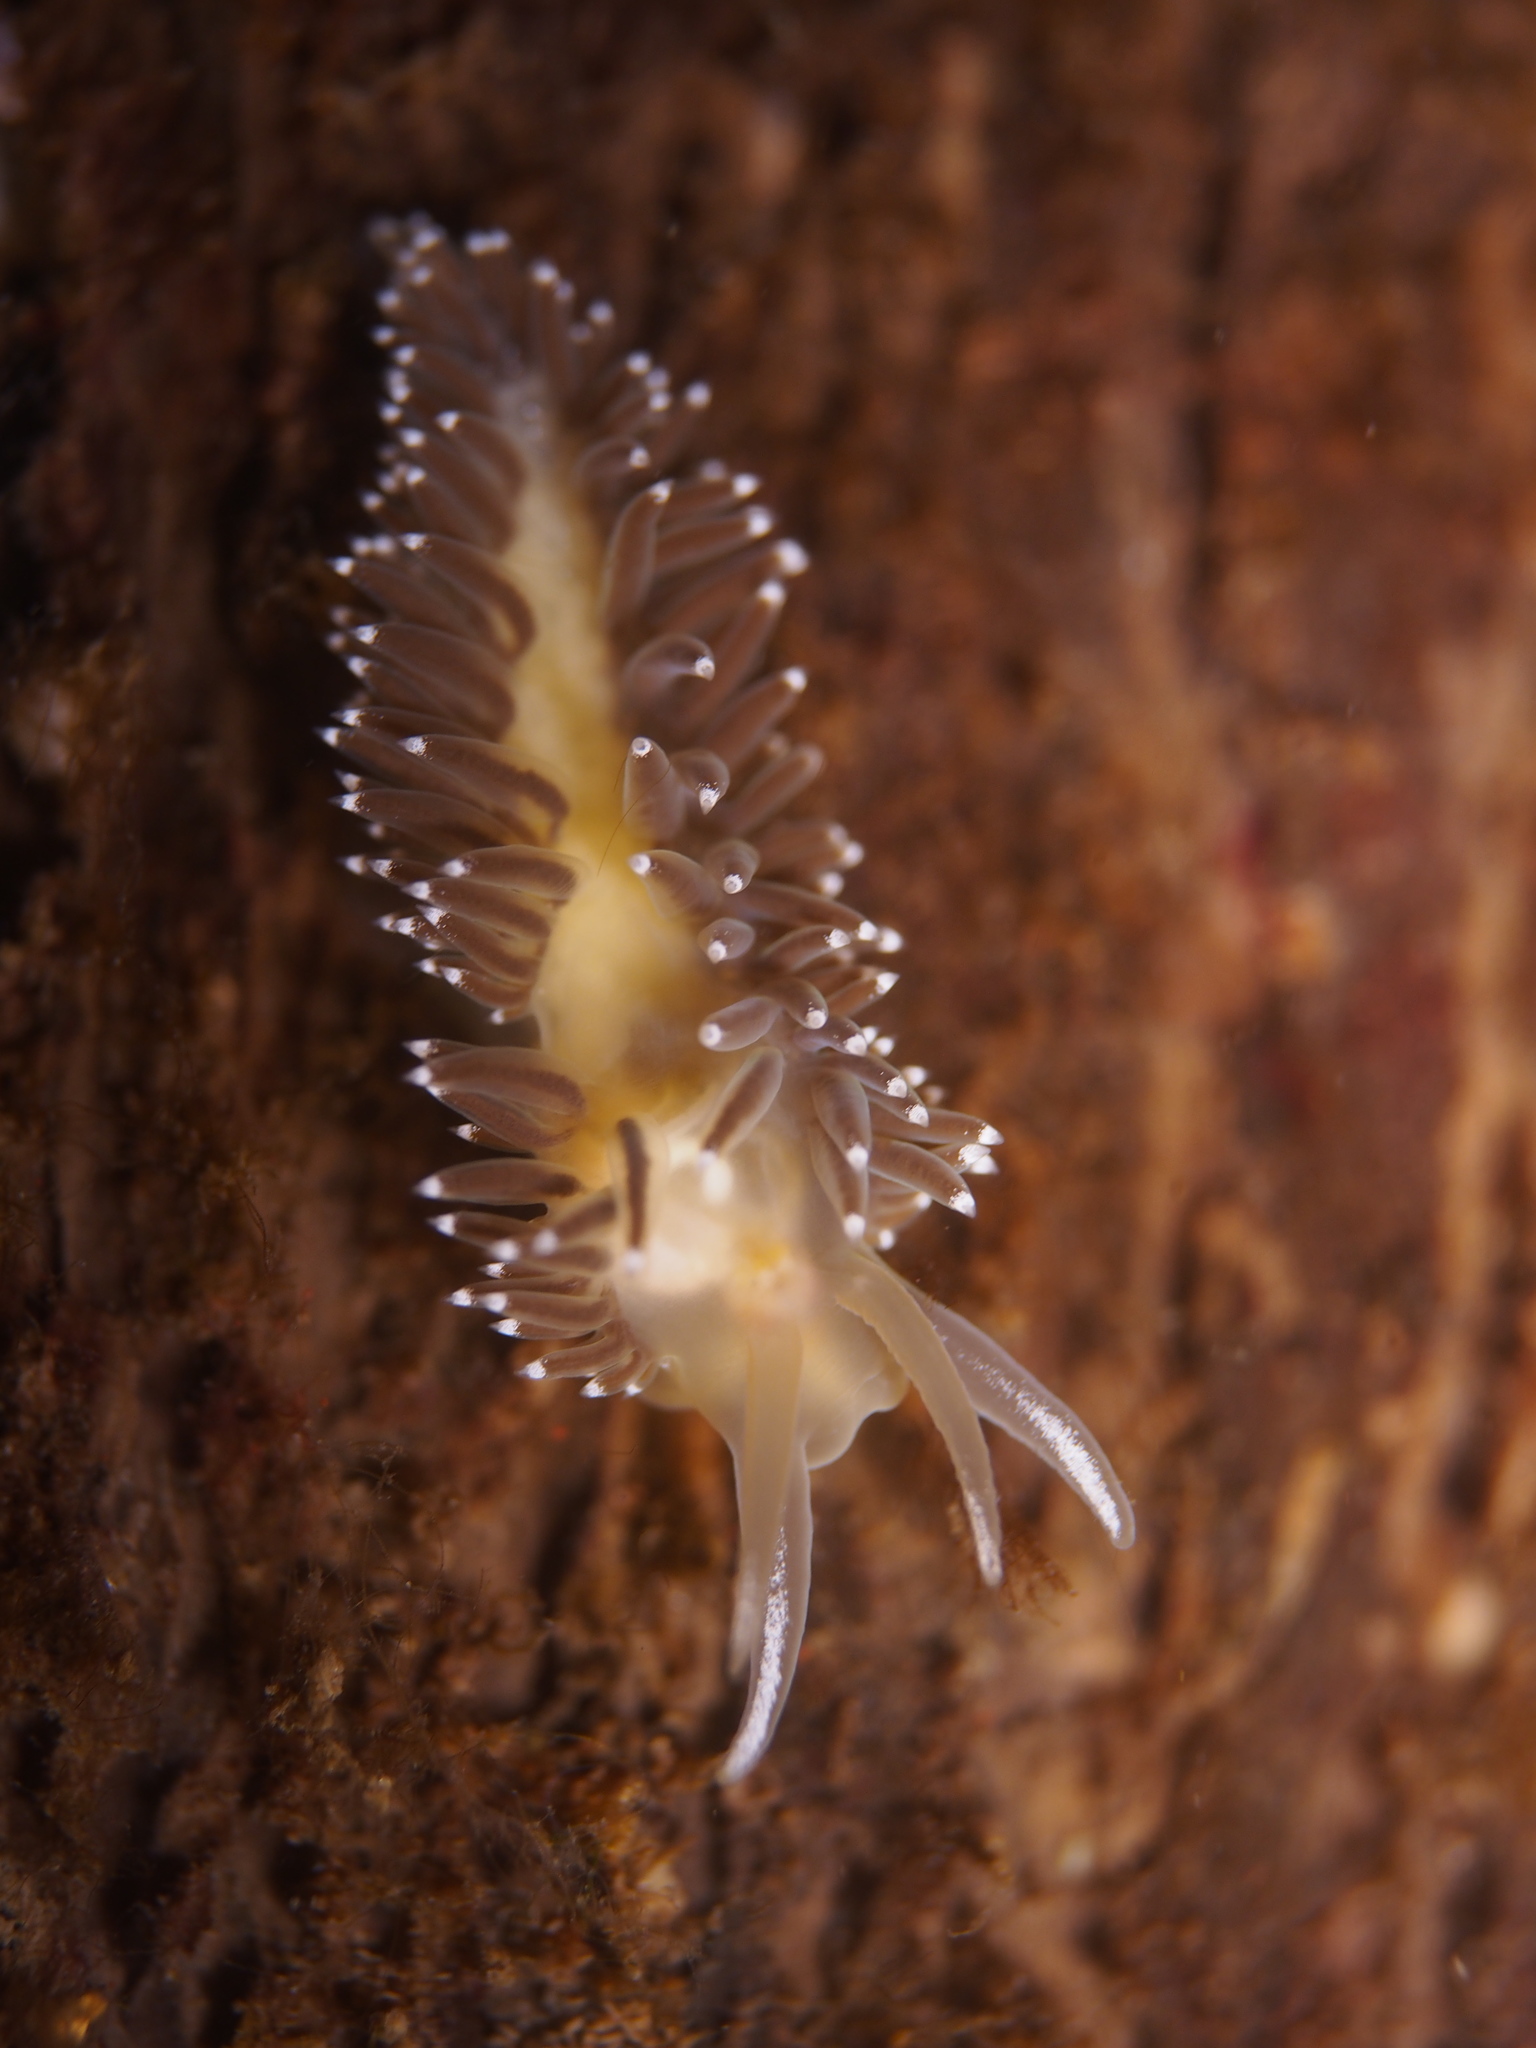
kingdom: Animalia
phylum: Mollusca
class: Gastropoda
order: Nudibranchia
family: Coryphellidae
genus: Coryphella
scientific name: Coryphella nobilis
